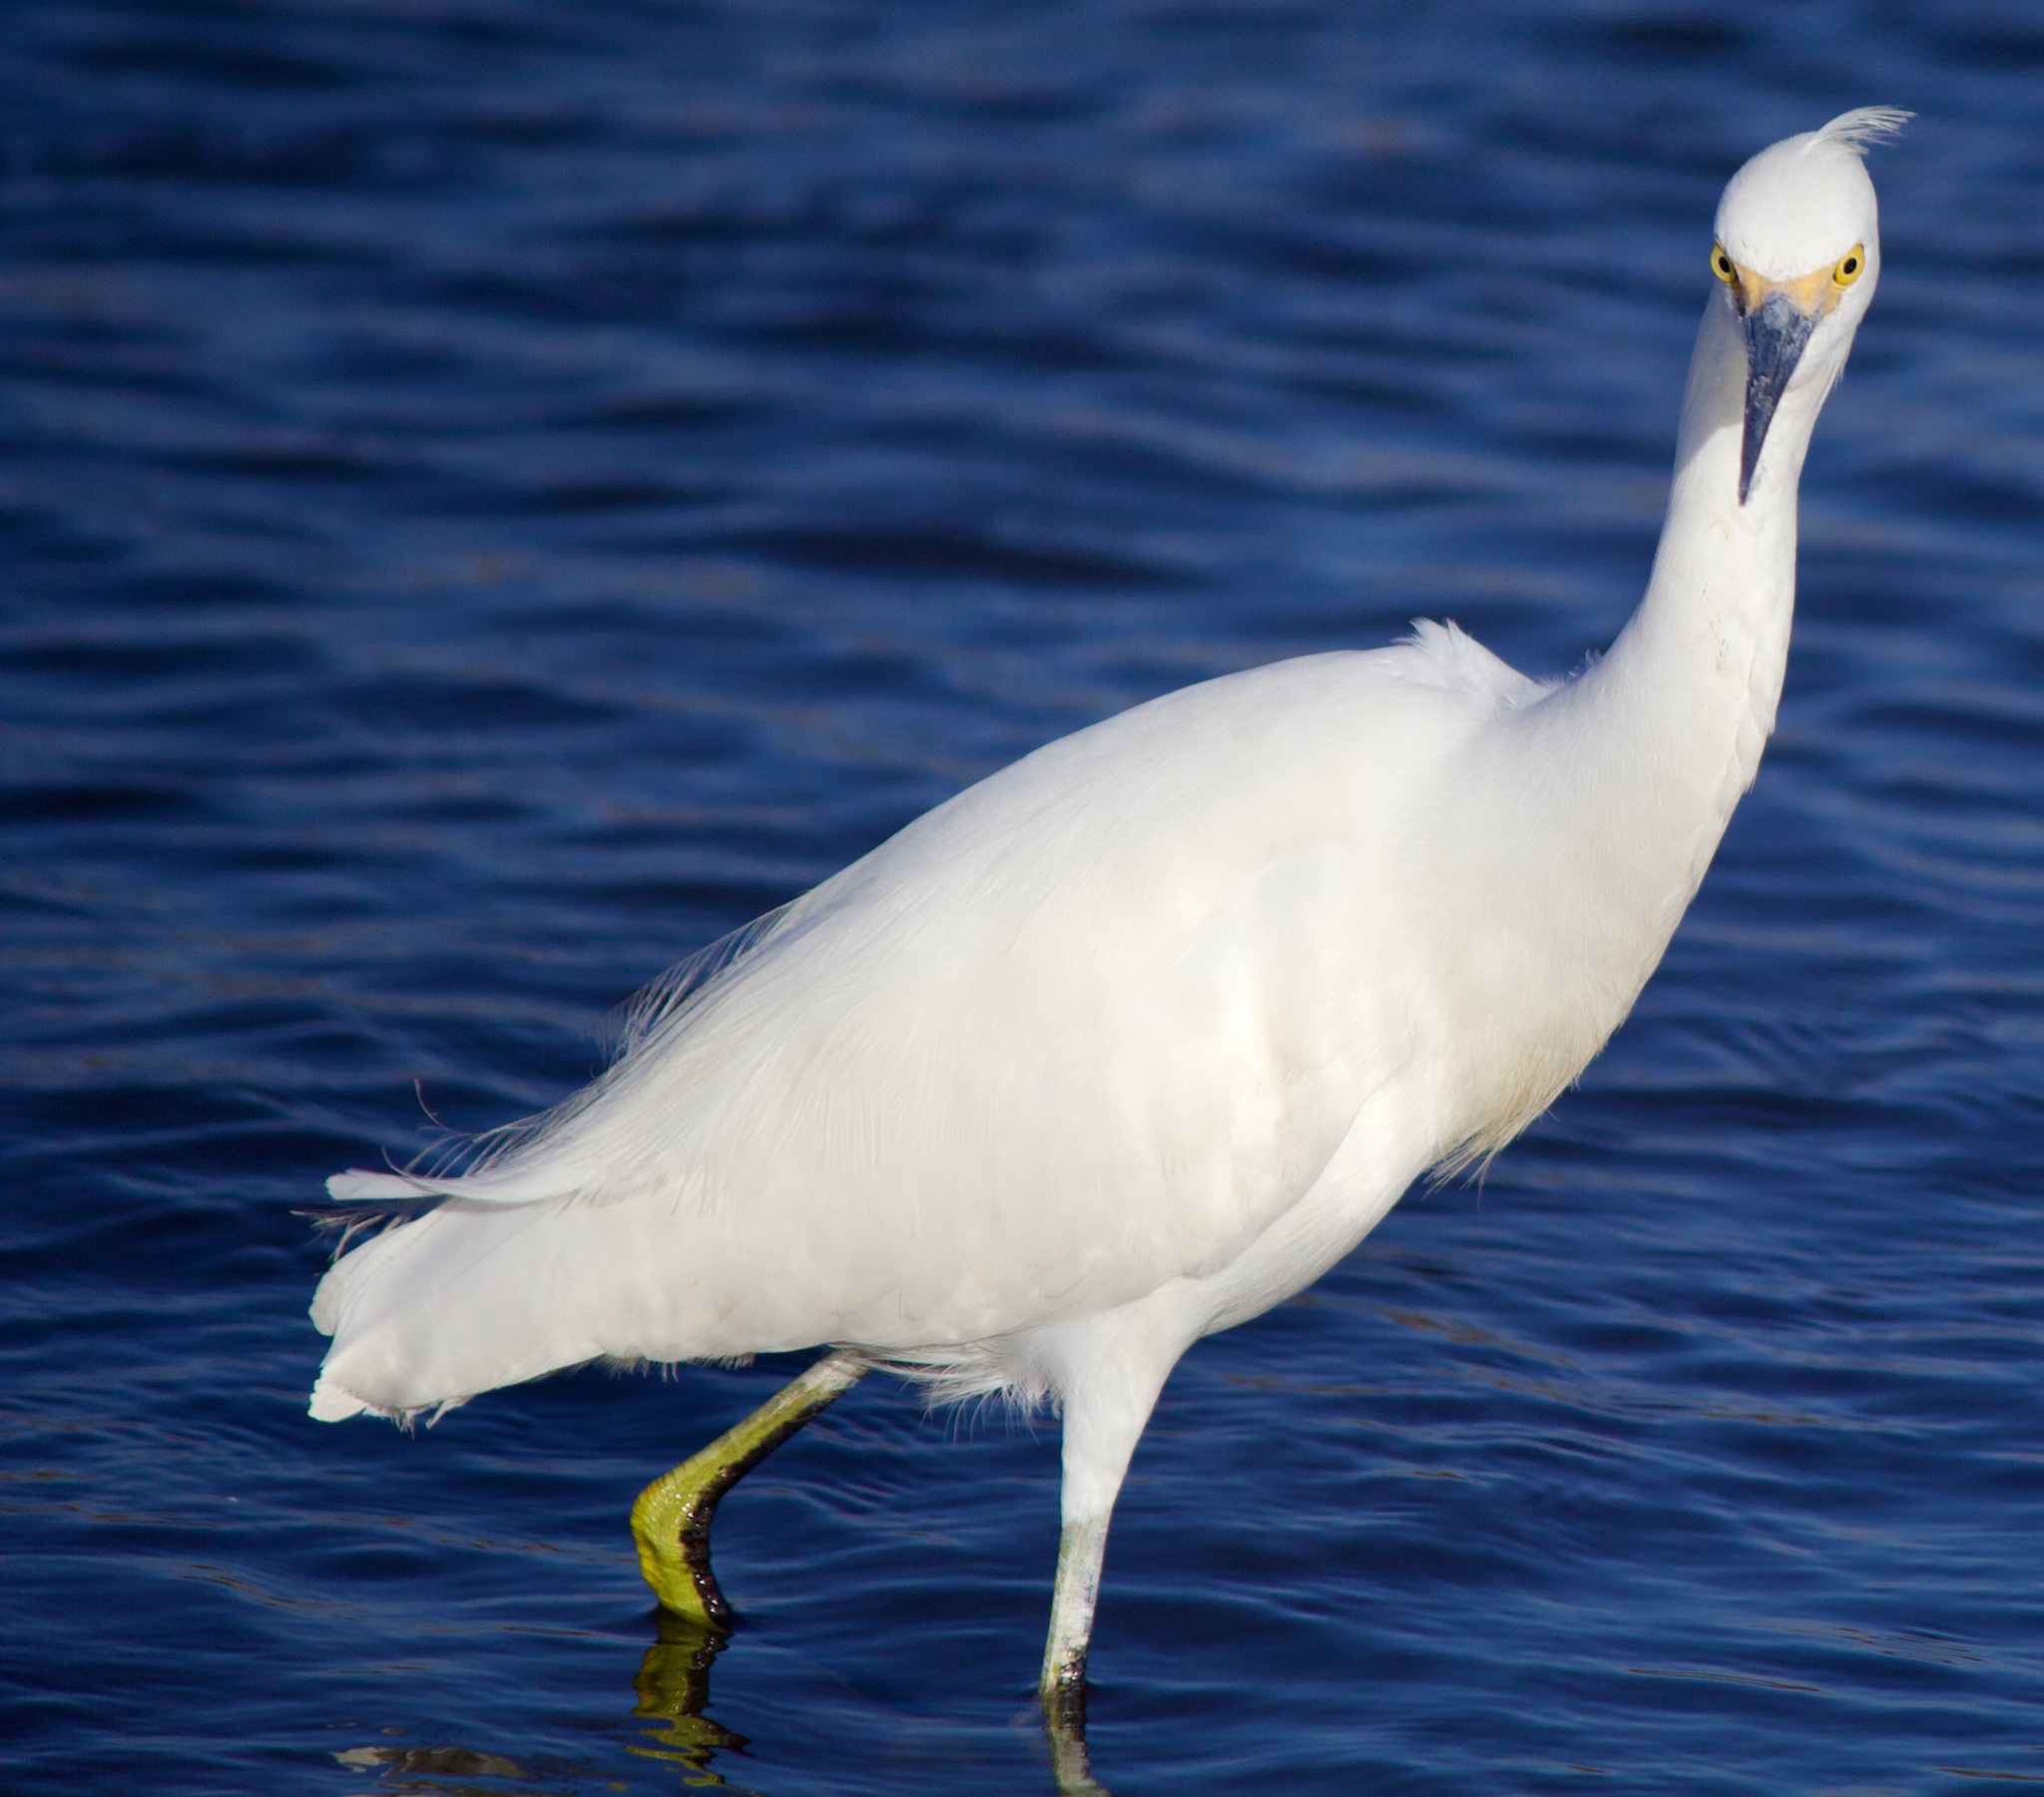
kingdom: Animalia
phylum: Chordata
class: Aves
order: Pelecaniformes
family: Ardeidae
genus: Egretta
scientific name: Egretta thula
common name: Snowy egret
